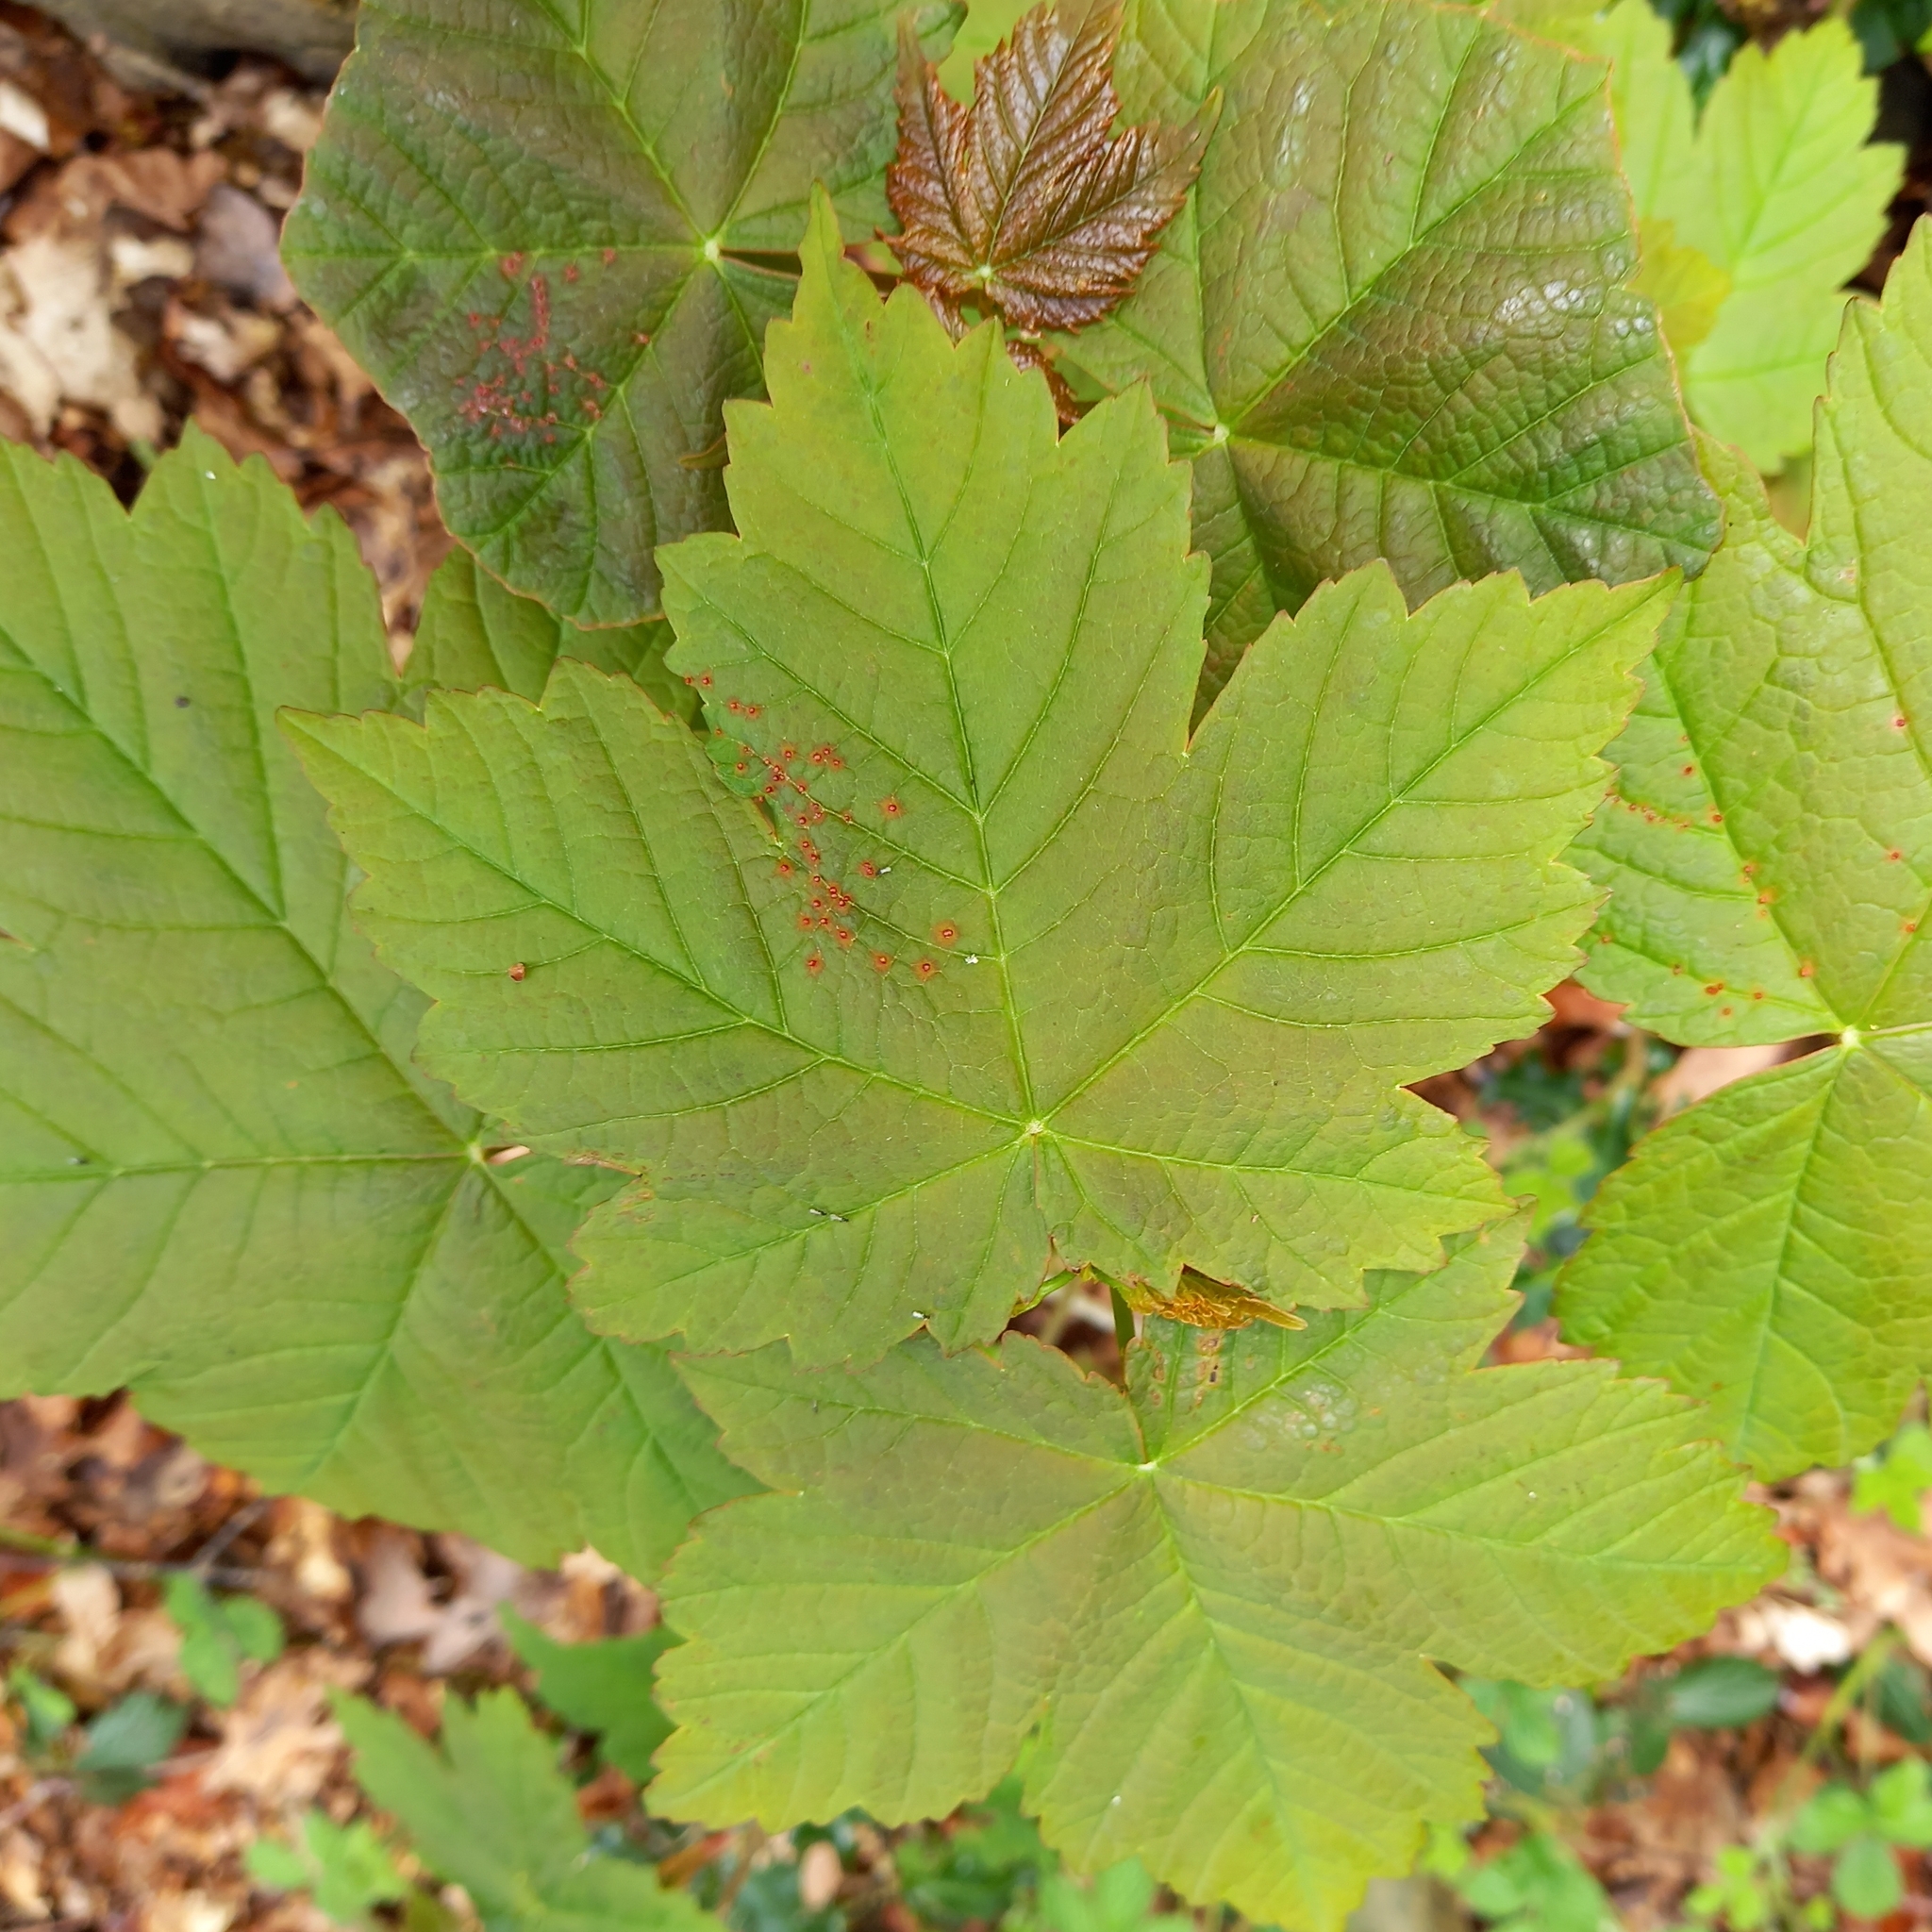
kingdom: Plantae
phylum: Tracheophyta
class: Magnoliopsida
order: Sapindales
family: Sapindaceae
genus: Acer
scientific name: Acer pseudoplatanus
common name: Sycamore
